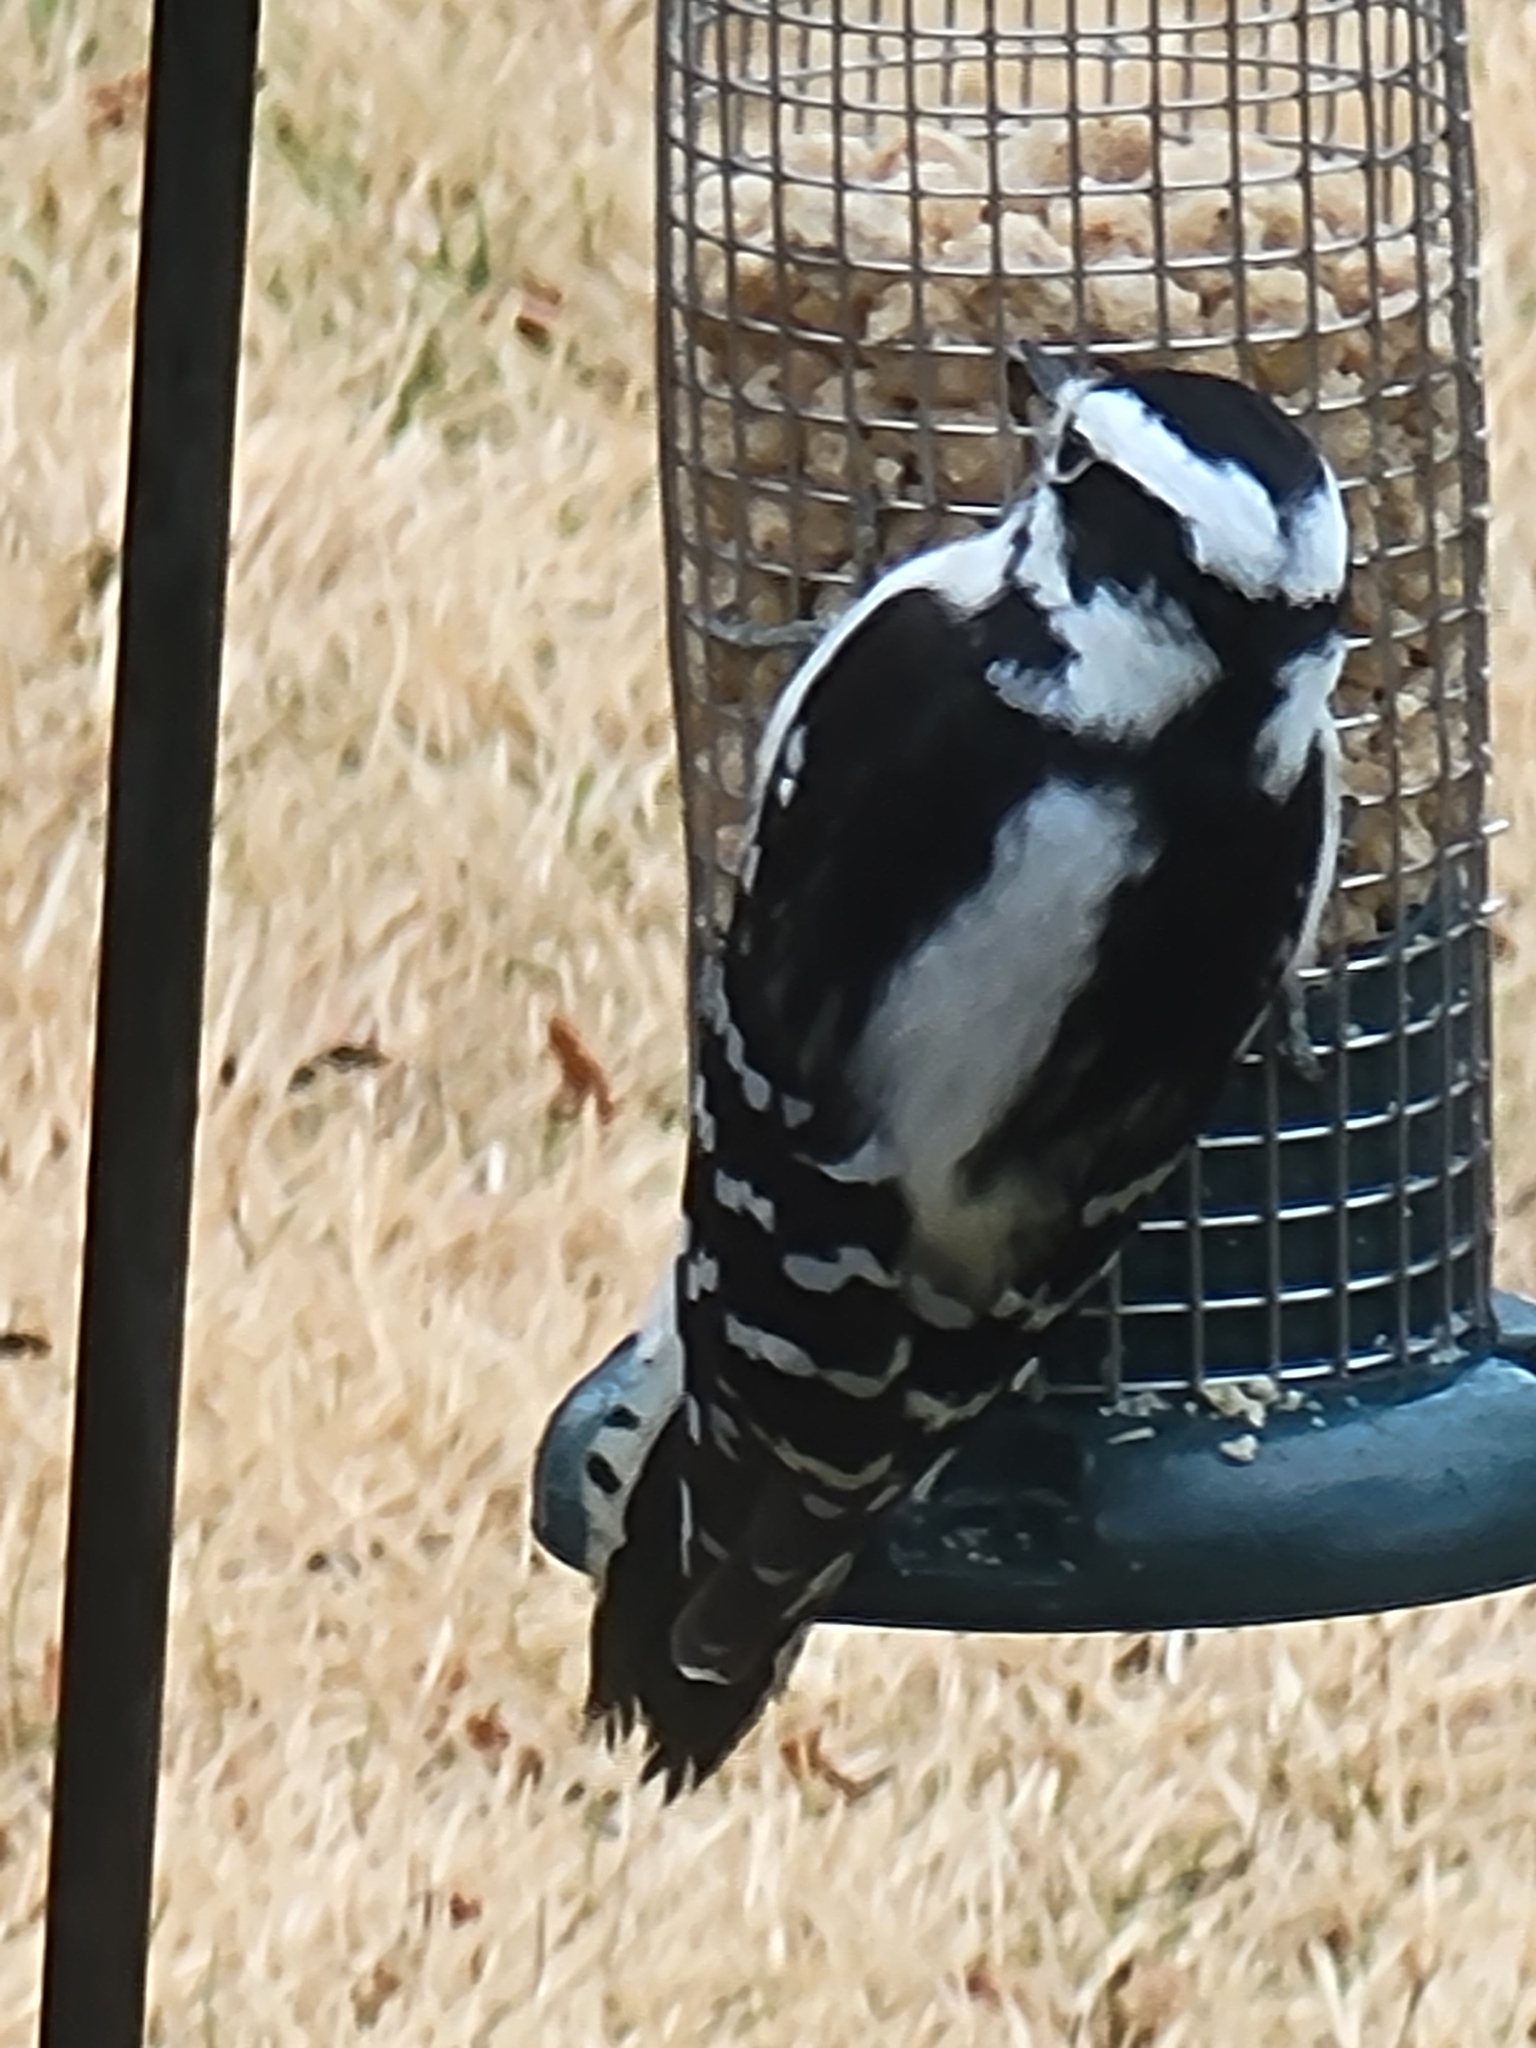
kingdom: Animalia
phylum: Chordata
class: Aves
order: Piciformes
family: Picidae
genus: Dryobates
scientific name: Dryobates pubescens
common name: Downy woodpecker
